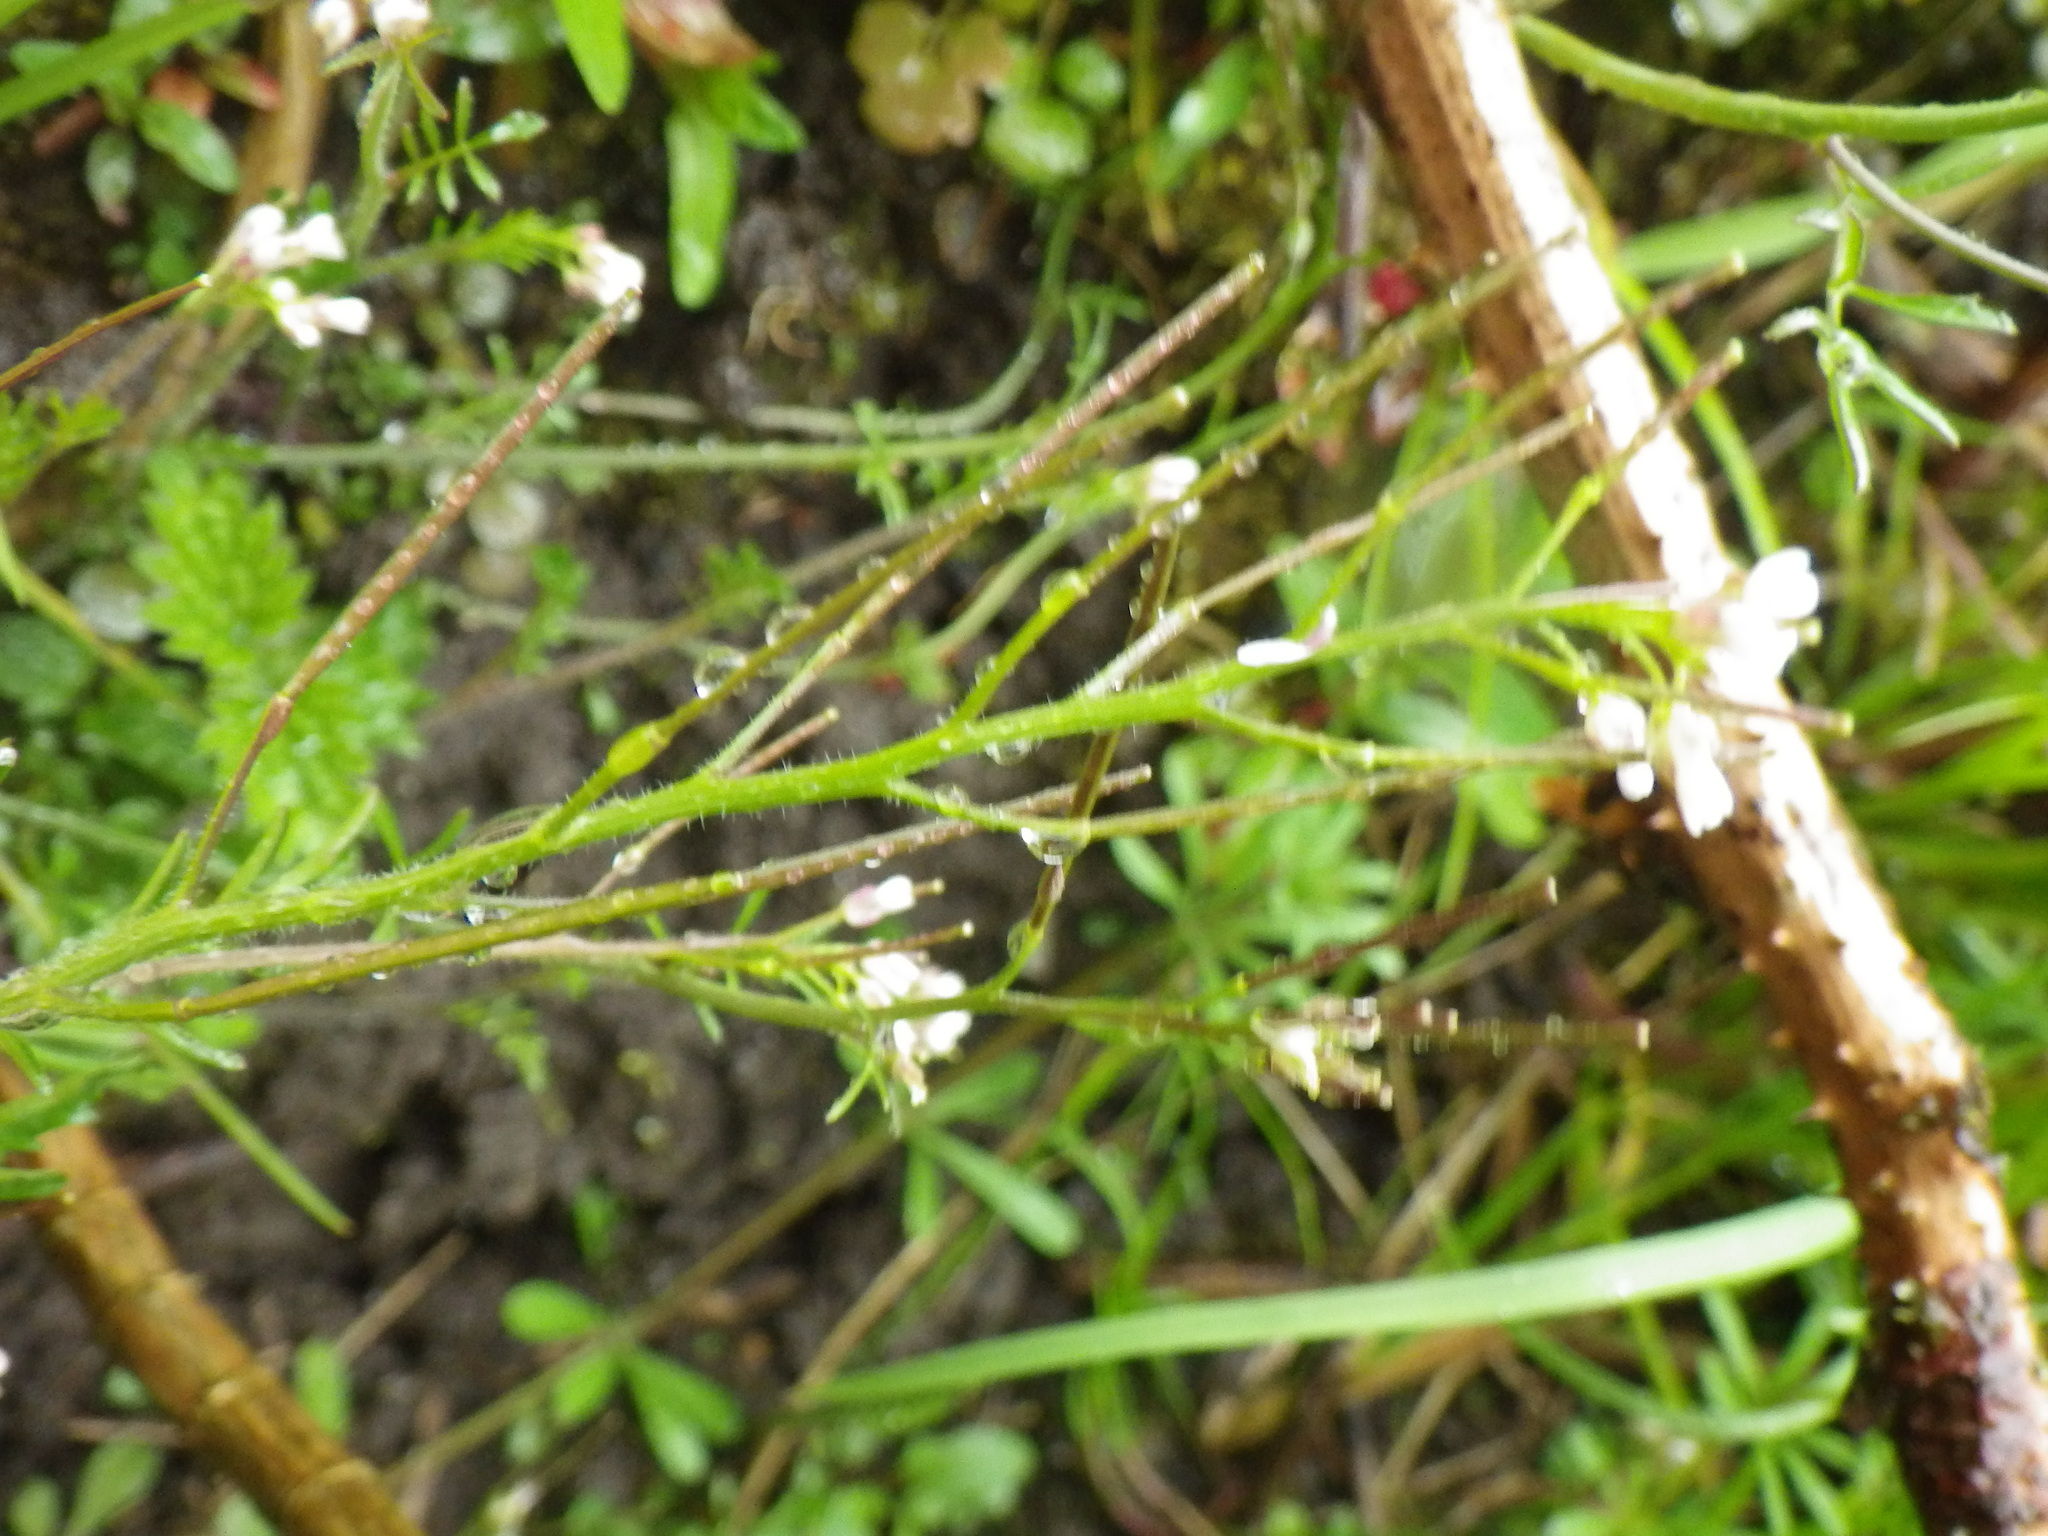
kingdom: Plantae
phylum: Tracheophyta
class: Magnoliopsida
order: Brassicales
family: Brassicaceae
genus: Cardamine
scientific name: Cardamine flexuosa
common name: Woodland bittercress
